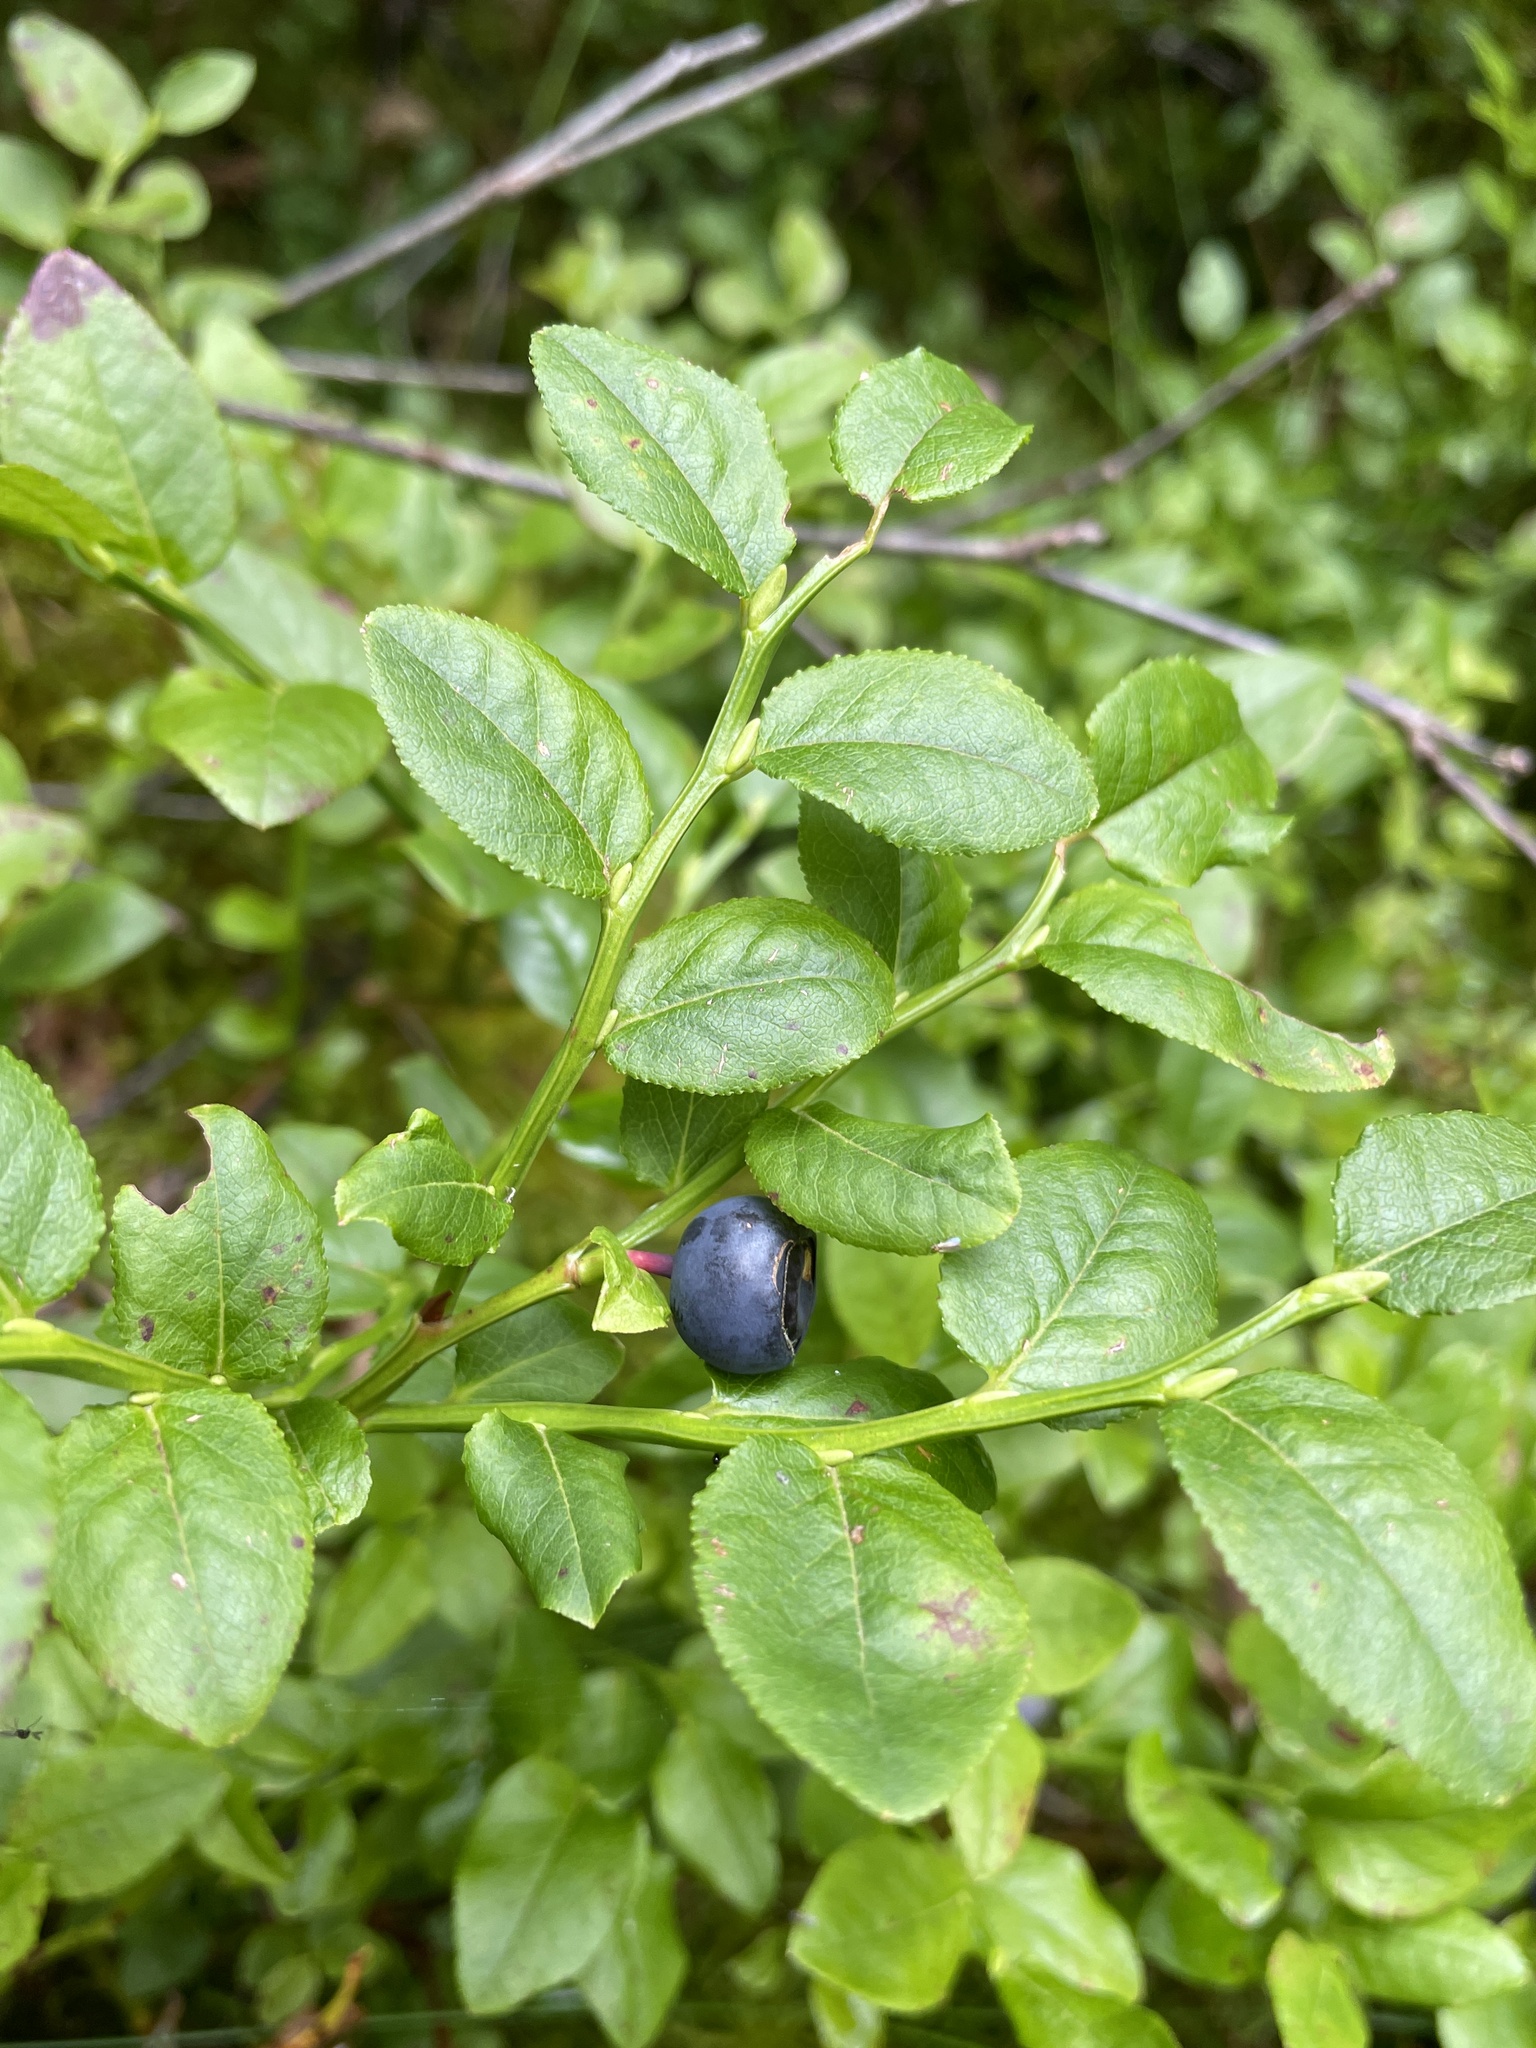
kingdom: Plantae
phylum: Tracheophyta
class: Magnoliopsida
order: Ericales
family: Ericaceae
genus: Vaccinium
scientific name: Vaccinium myrtillus
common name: Bilberry
